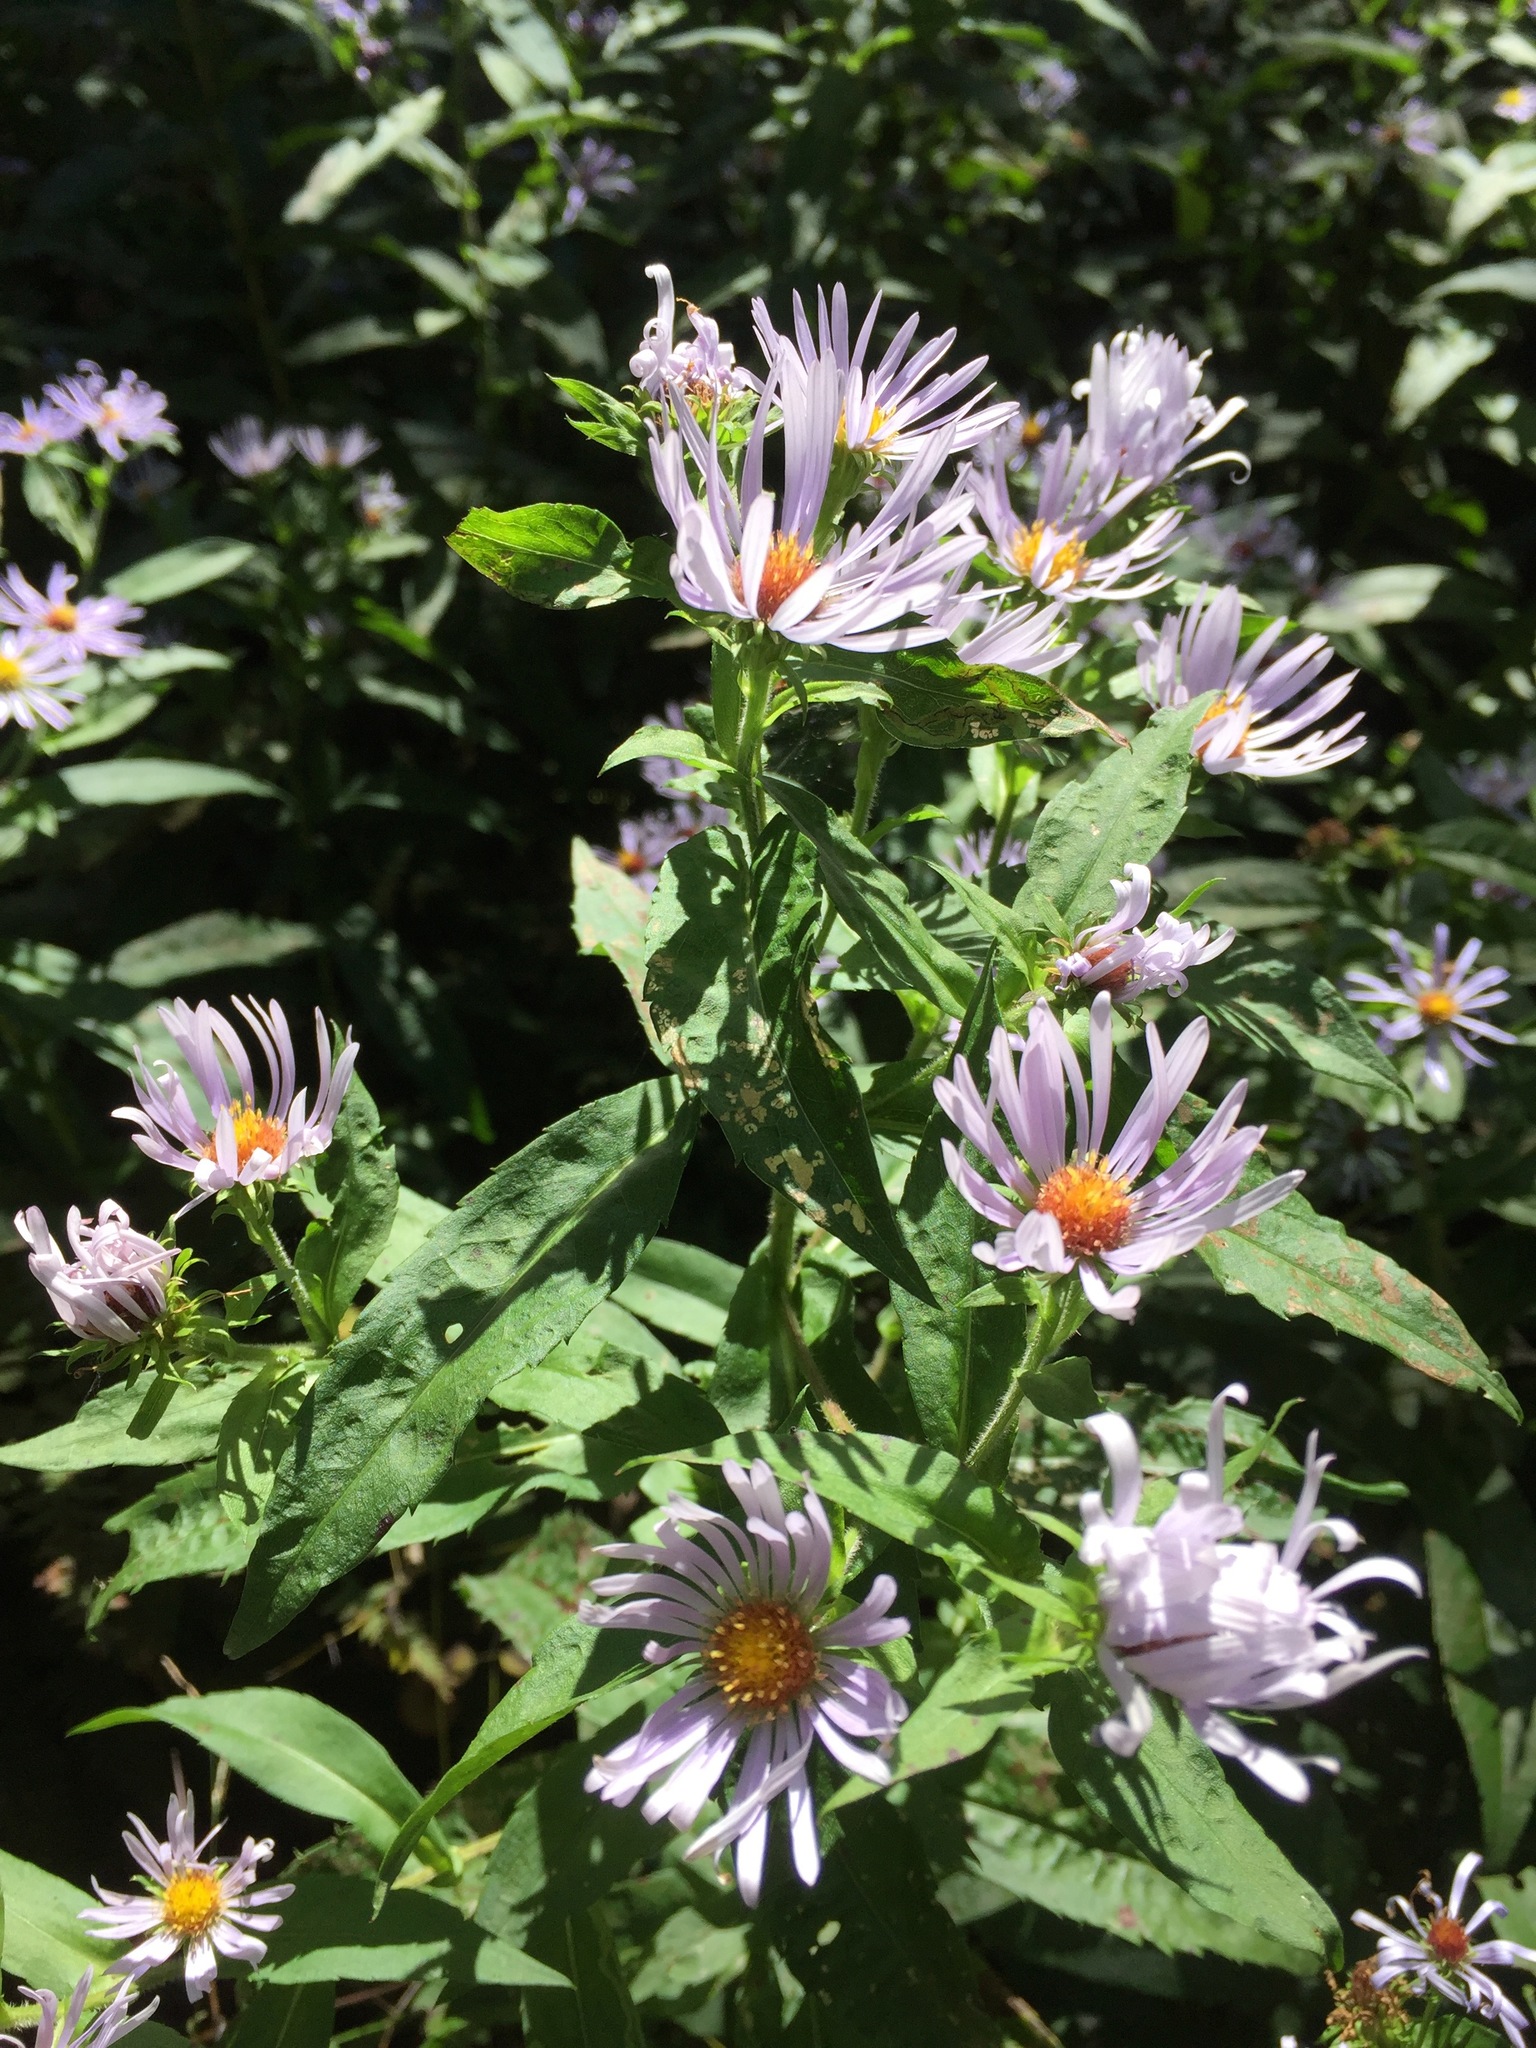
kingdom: Plantae
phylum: Tracheophyta
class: Magnoliopsida
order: Asterales
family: Asteraceae
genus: Symphyotrichum
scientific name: Symphyotrichum puniceum
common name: Bog aster
